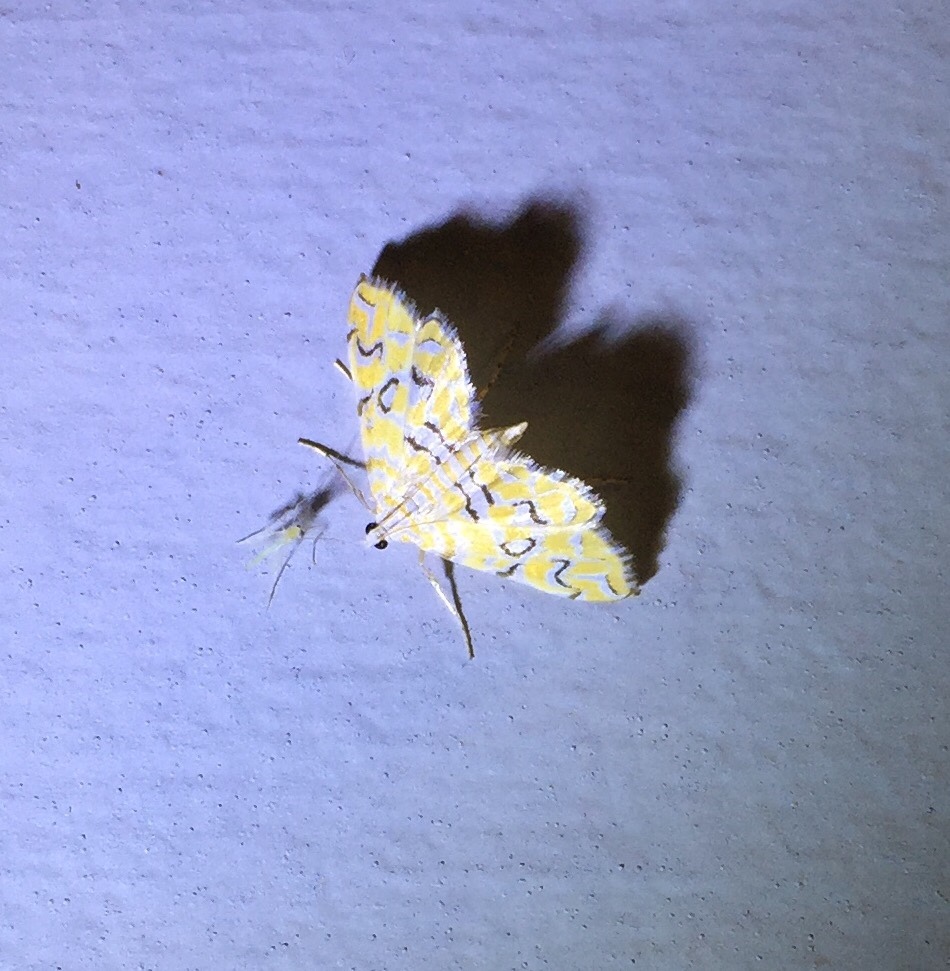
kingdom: Animalia
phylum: Arthropoda
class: Insecta
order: Lepidoptera
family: Crambidae
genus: Elophila
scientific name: Elophila icciusalis
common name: Pondside pyralid moth
